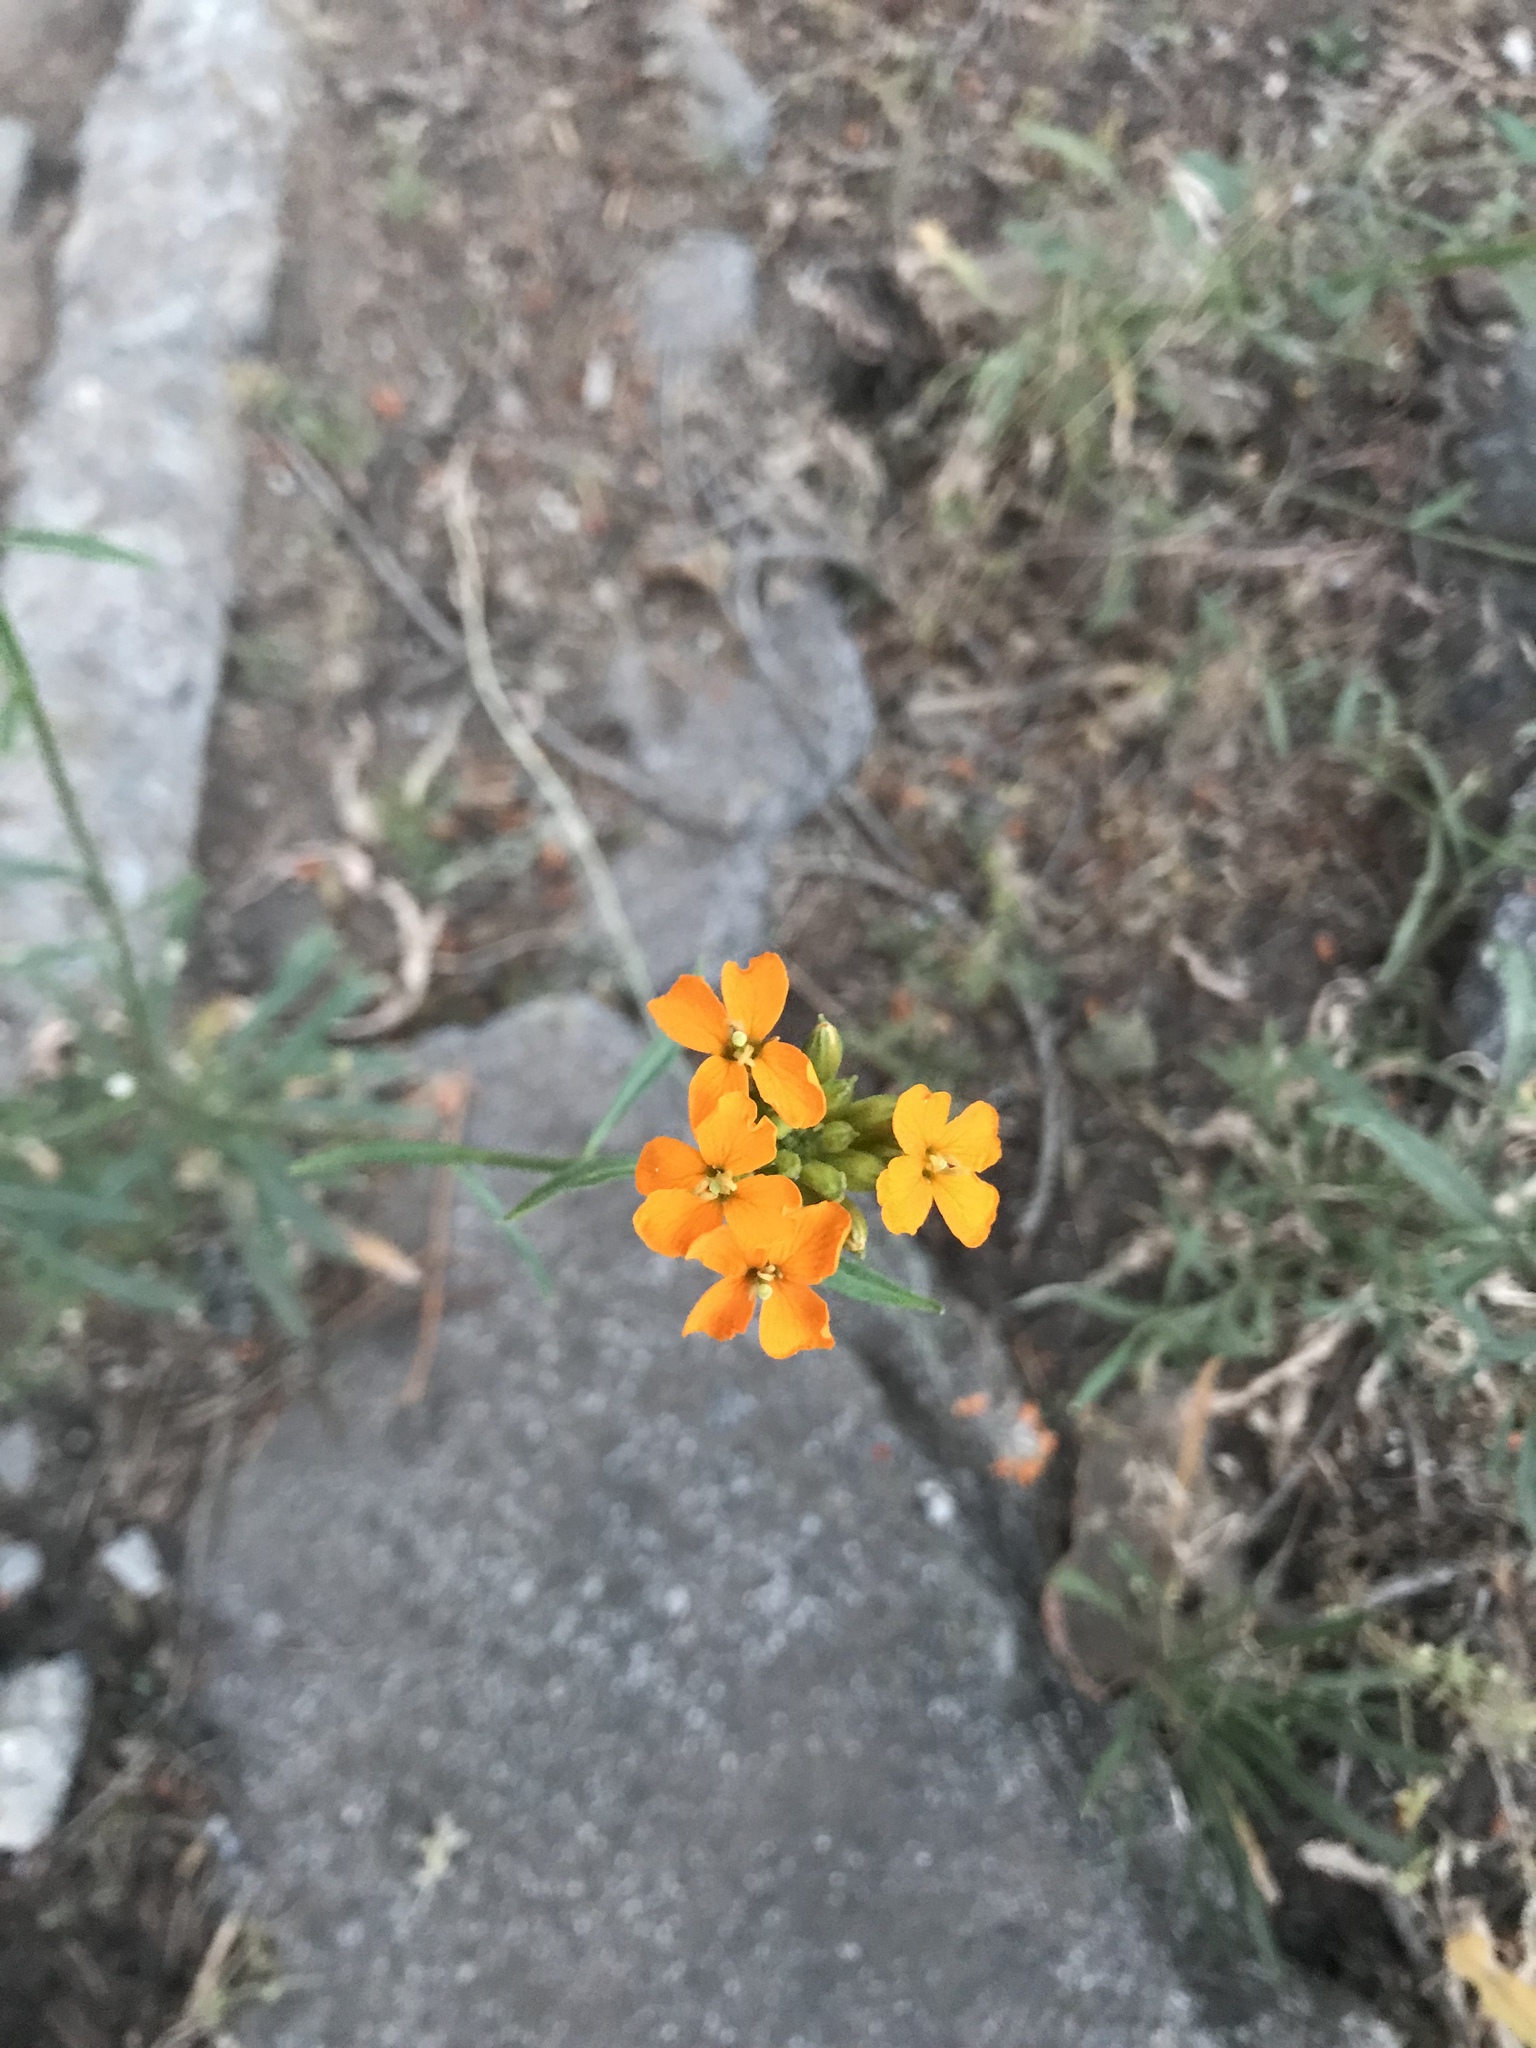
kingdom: Plantae
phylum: Tracheophyta
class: Magnoliopsida
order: Brassicales
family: Brassicaceae
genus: Erysimum
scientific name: Erysimum capitatum
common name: Western wallflower
